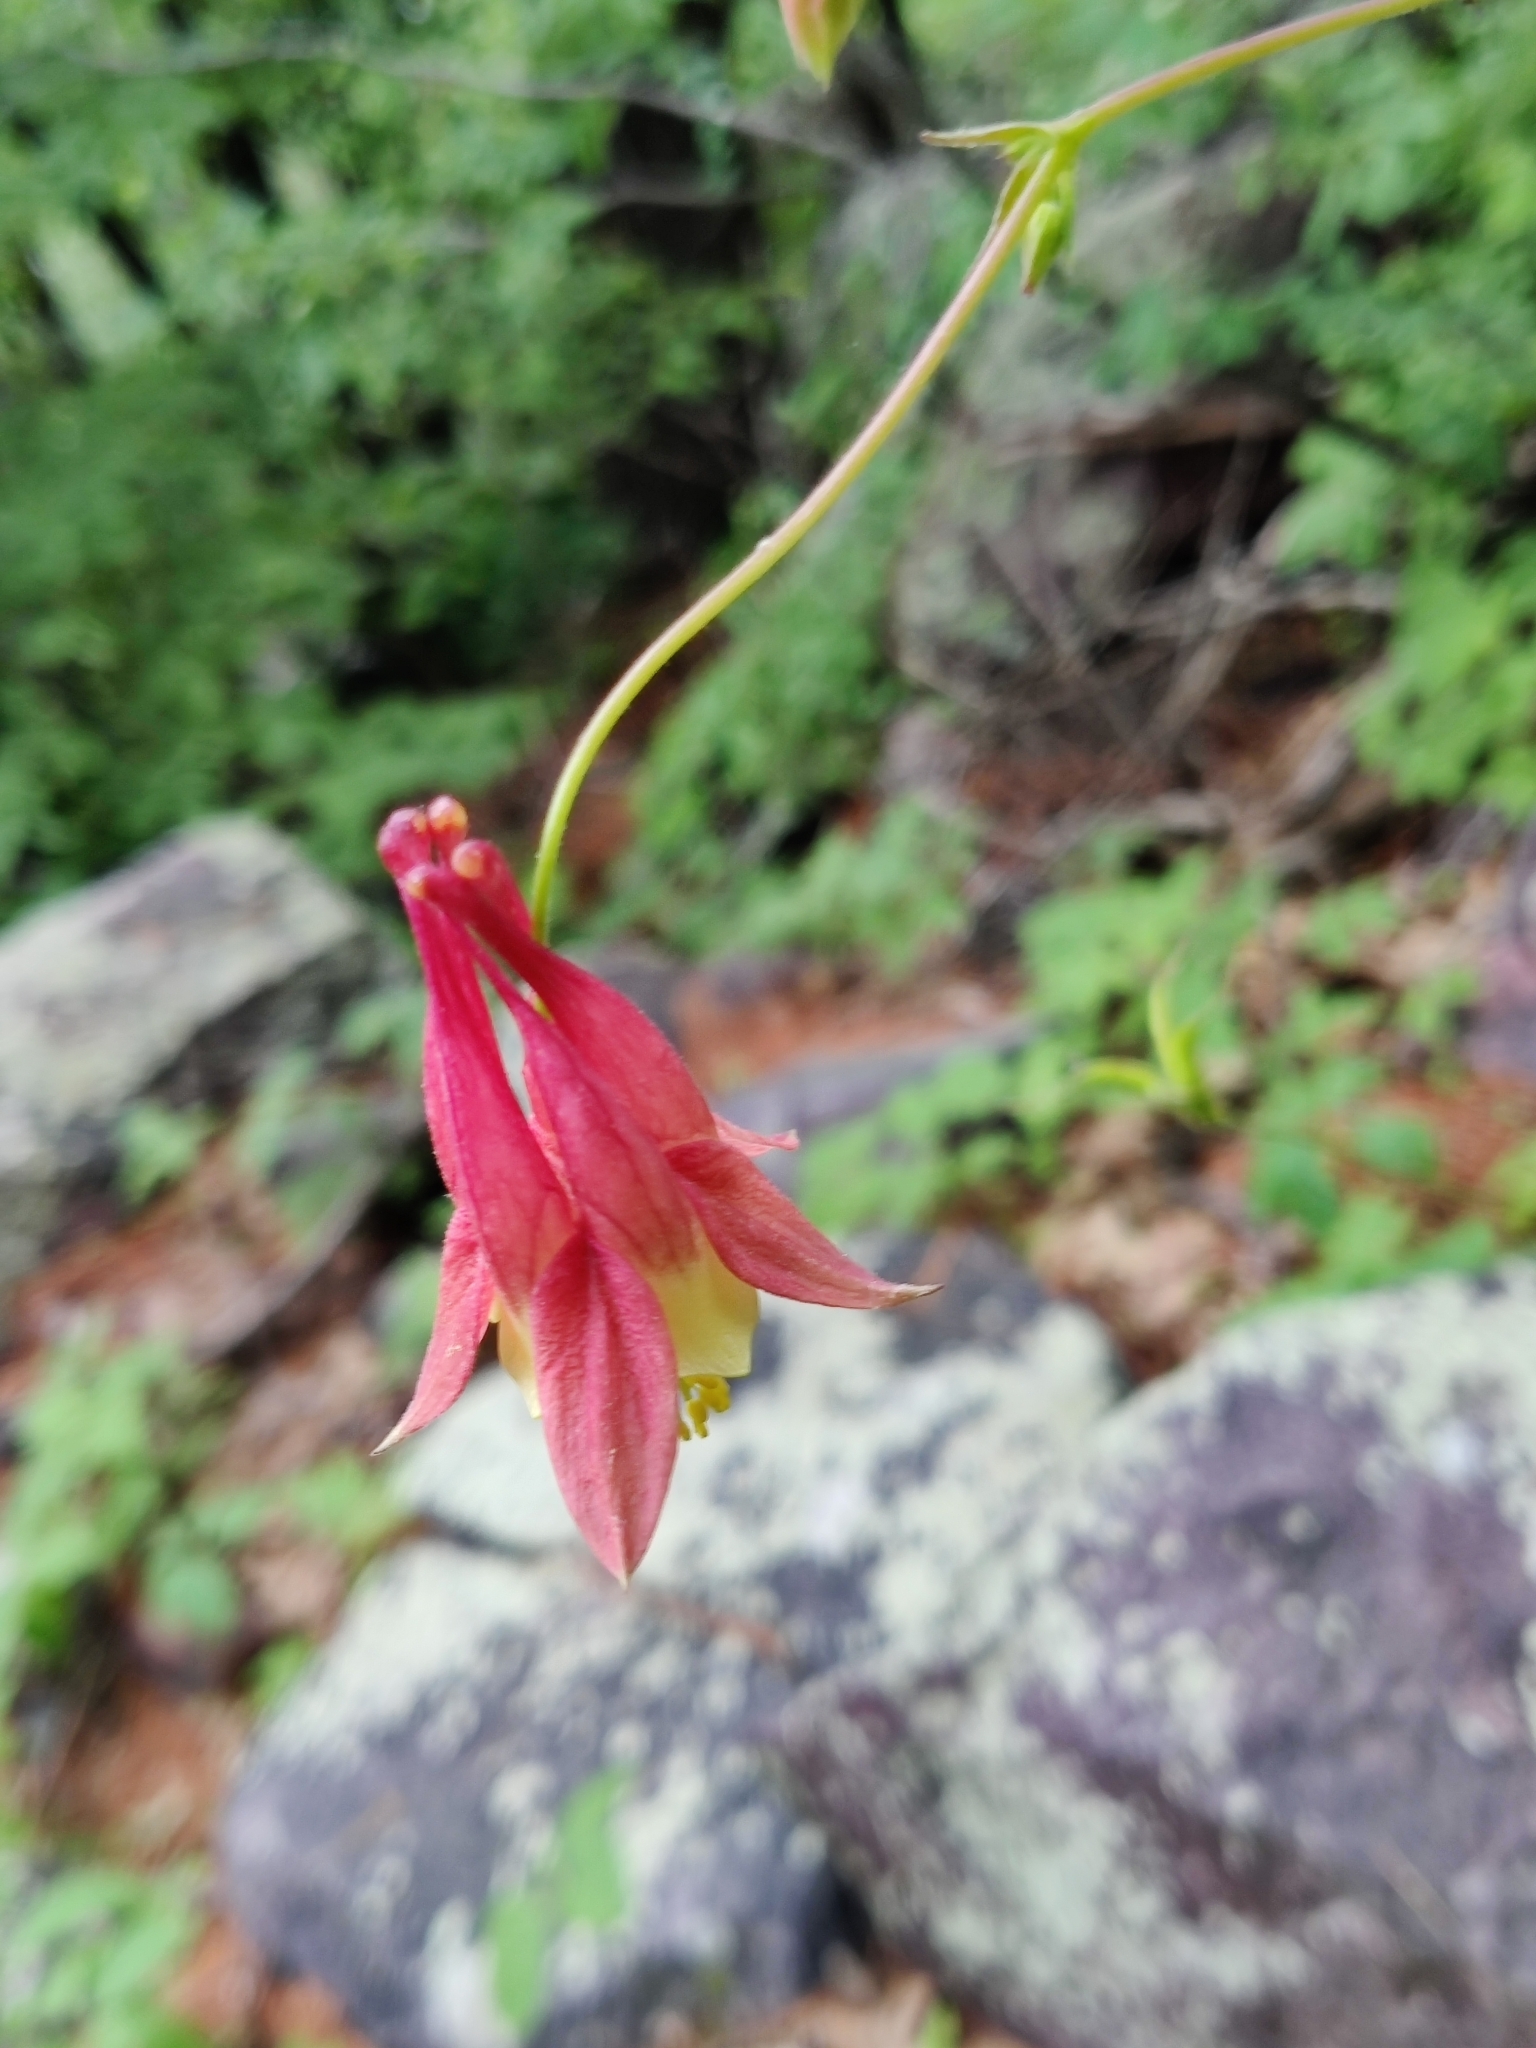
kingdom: Plantae
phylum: Tracheophyta
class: Magnoliopsida
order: Ranunculales
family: Ranunculaceae
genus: Aquilegia
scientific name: Aquilegia canadensis
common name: American columbine
